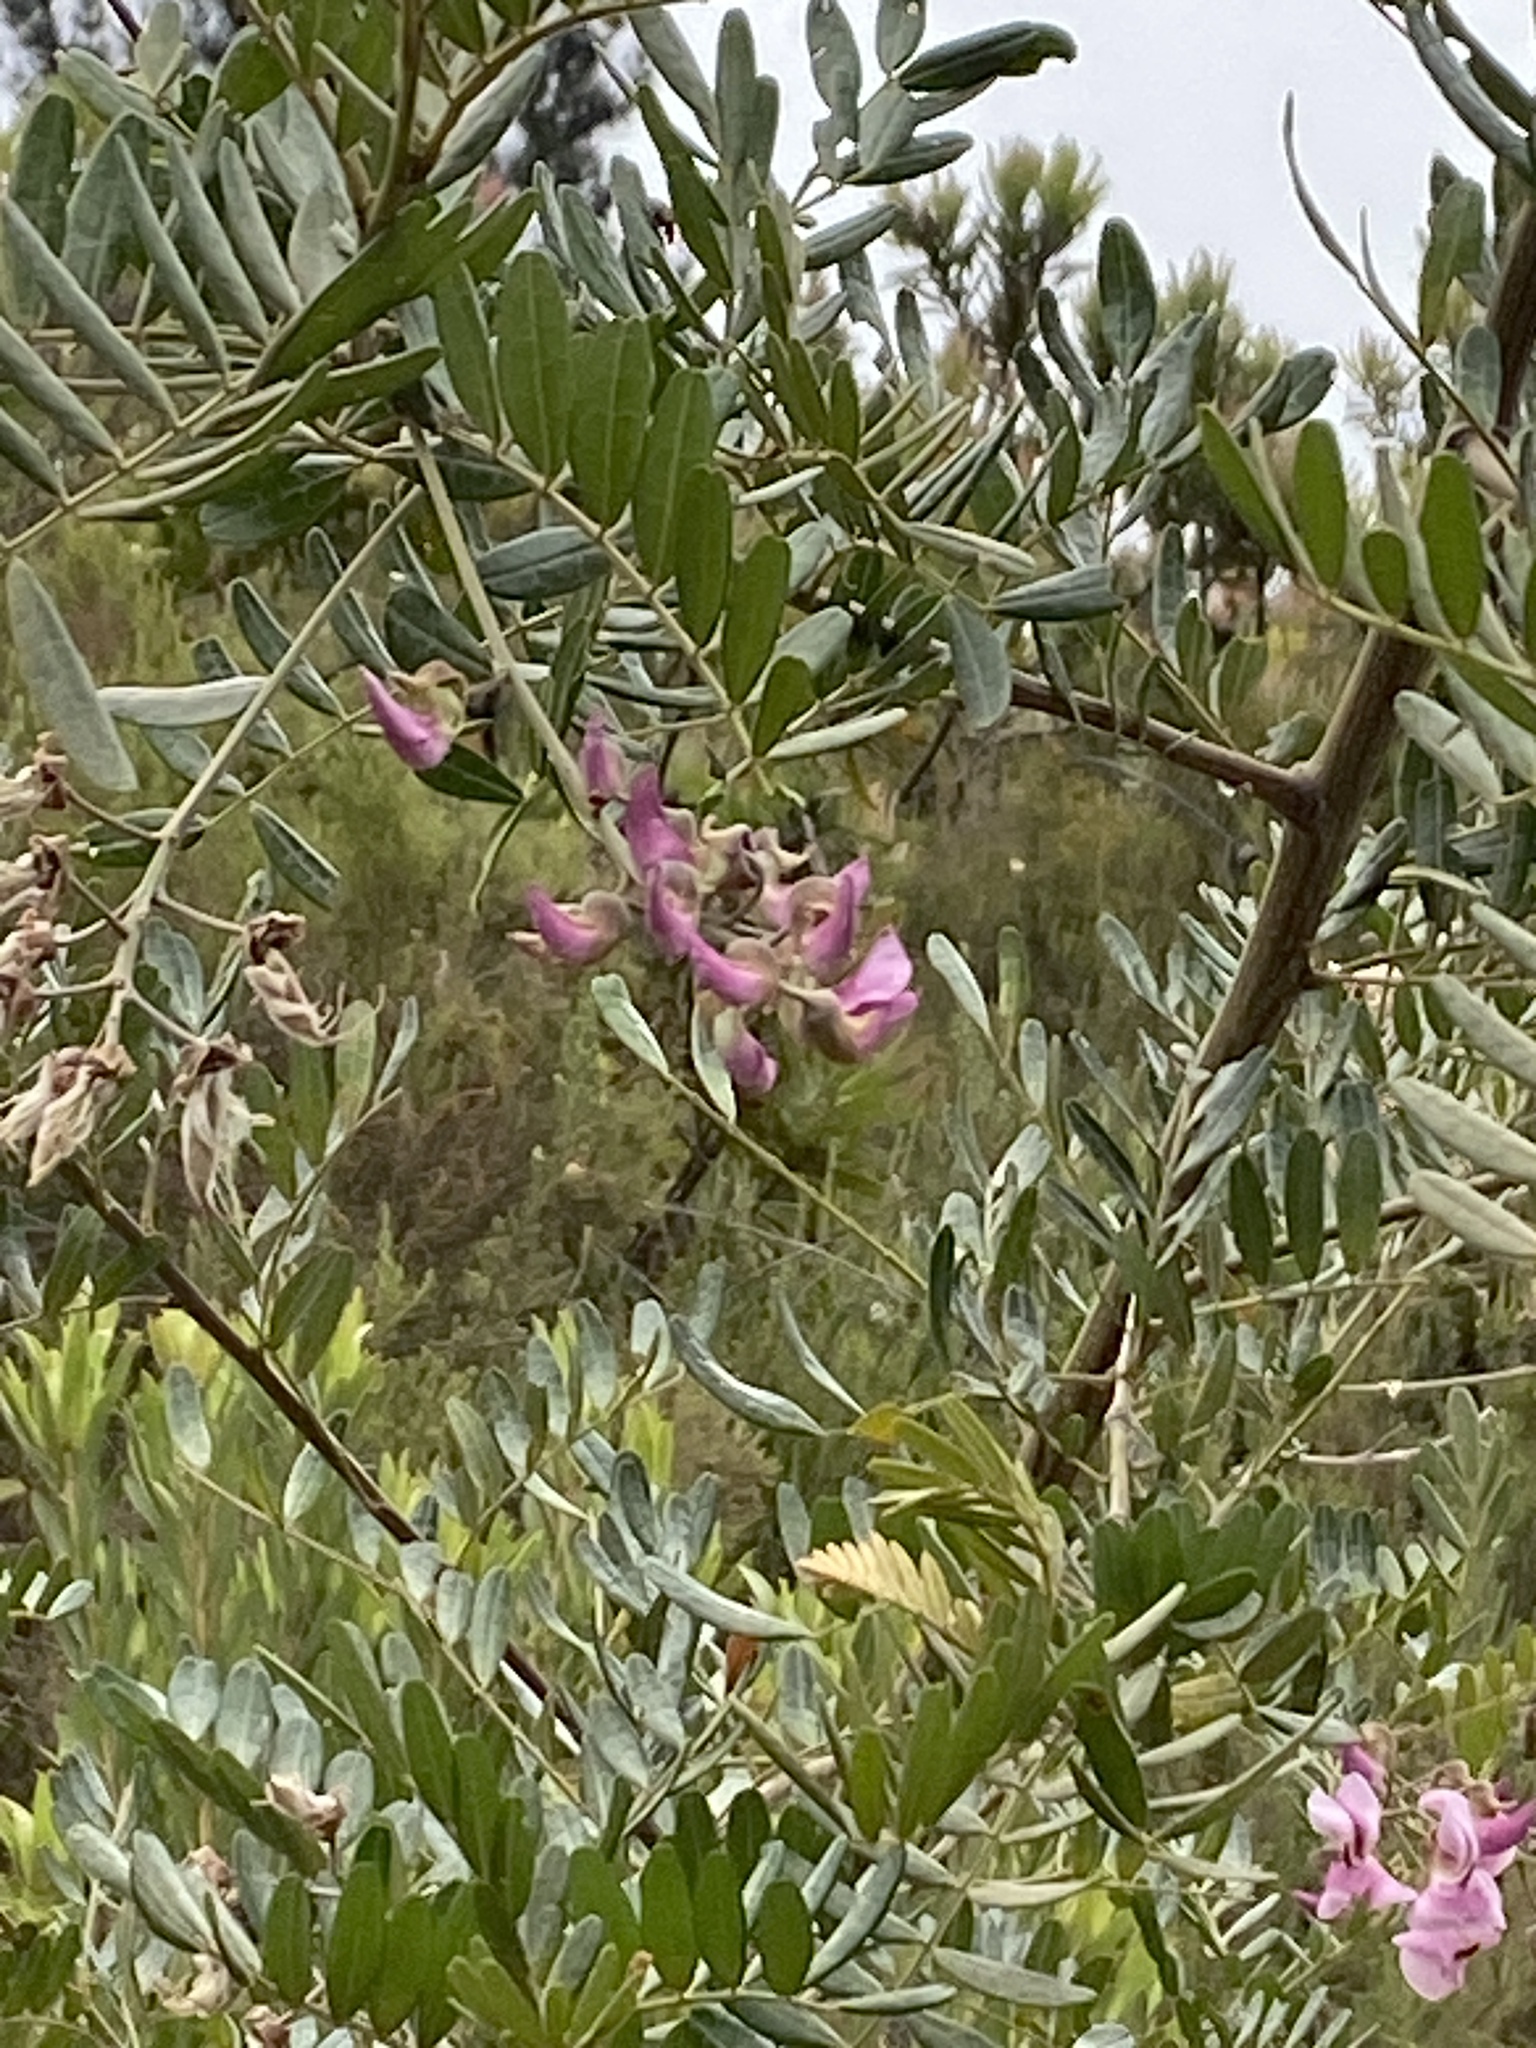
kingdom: Plantae
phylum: Tracheophyta
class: Magnoliopsida
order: Fabales
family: Fabaceae
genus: Virgilia
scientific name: Virgilia divaricata
